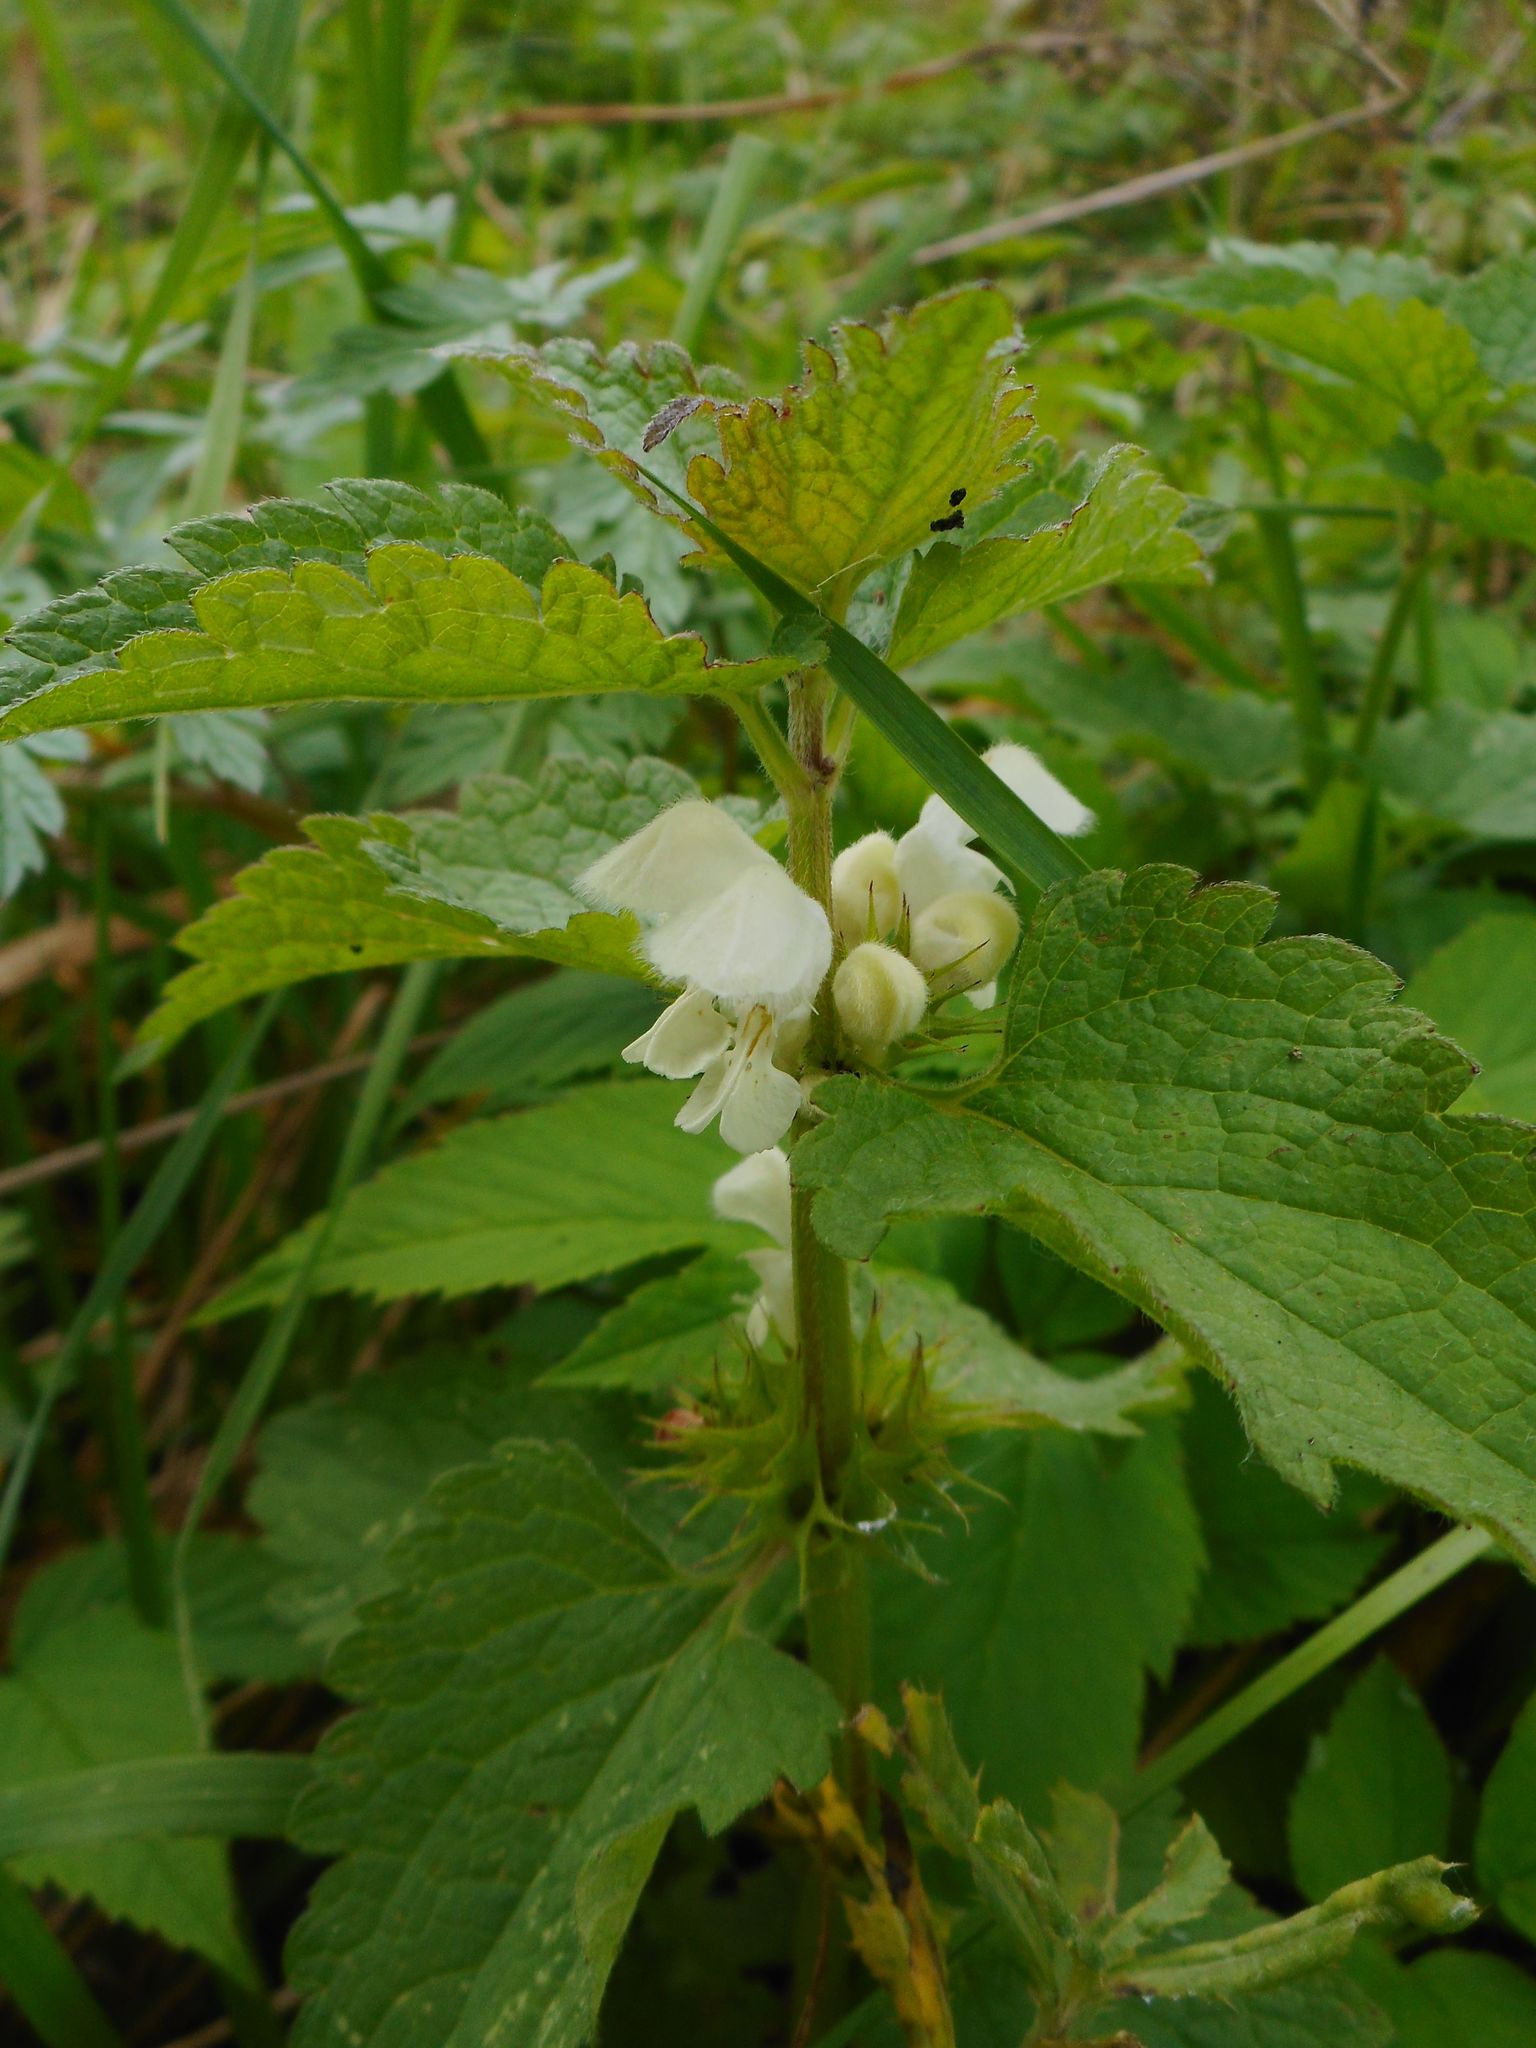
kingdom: Plantae
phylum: Tracheophyta
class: Magnoliopsida
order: Lamiales
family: Lamiaceae
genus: Lamium
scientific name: Lamium album
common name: White dead-nettle
